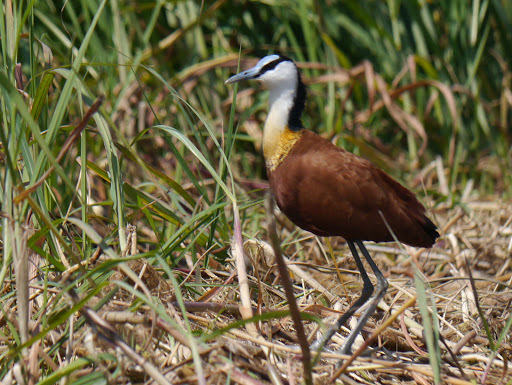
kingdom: Animalia
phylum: Chordata
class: Aves
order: Charadriiformes
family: Jacanidae
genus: Actophilornis
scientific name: Actophilornis africanus
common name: African jacana
